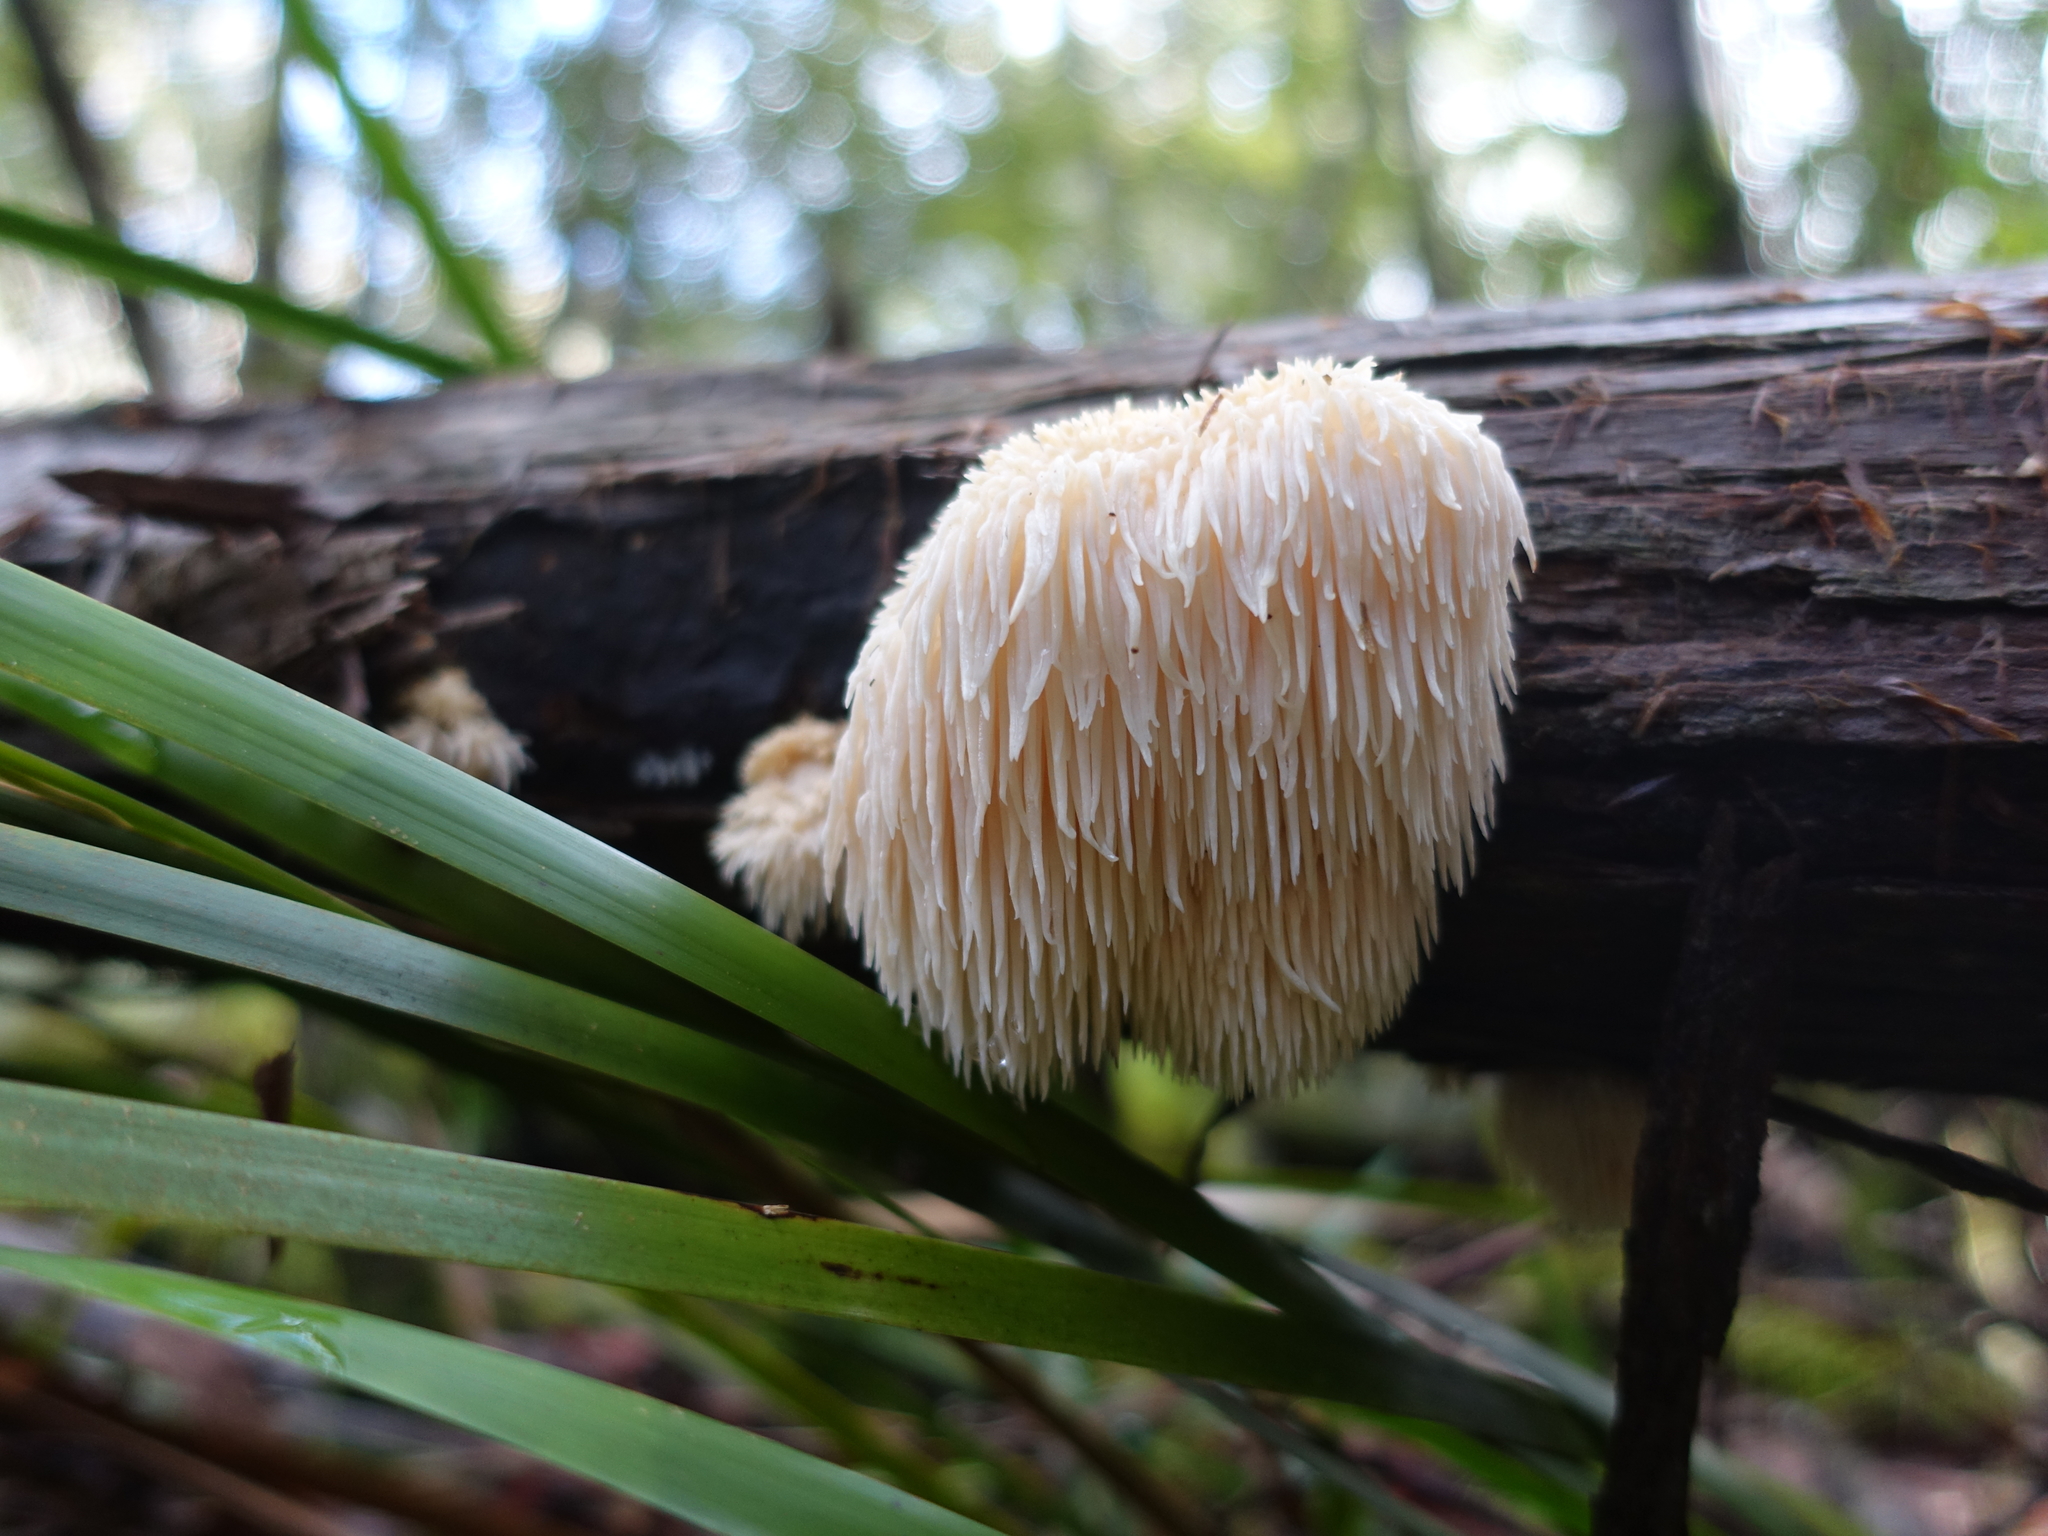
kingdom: Fungi
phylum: Basidiomycota
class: Agaricomycetes
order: Russulales
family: Hericiaceae
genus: Hericium
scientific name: Hericium coralloides
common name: Coral tooth
